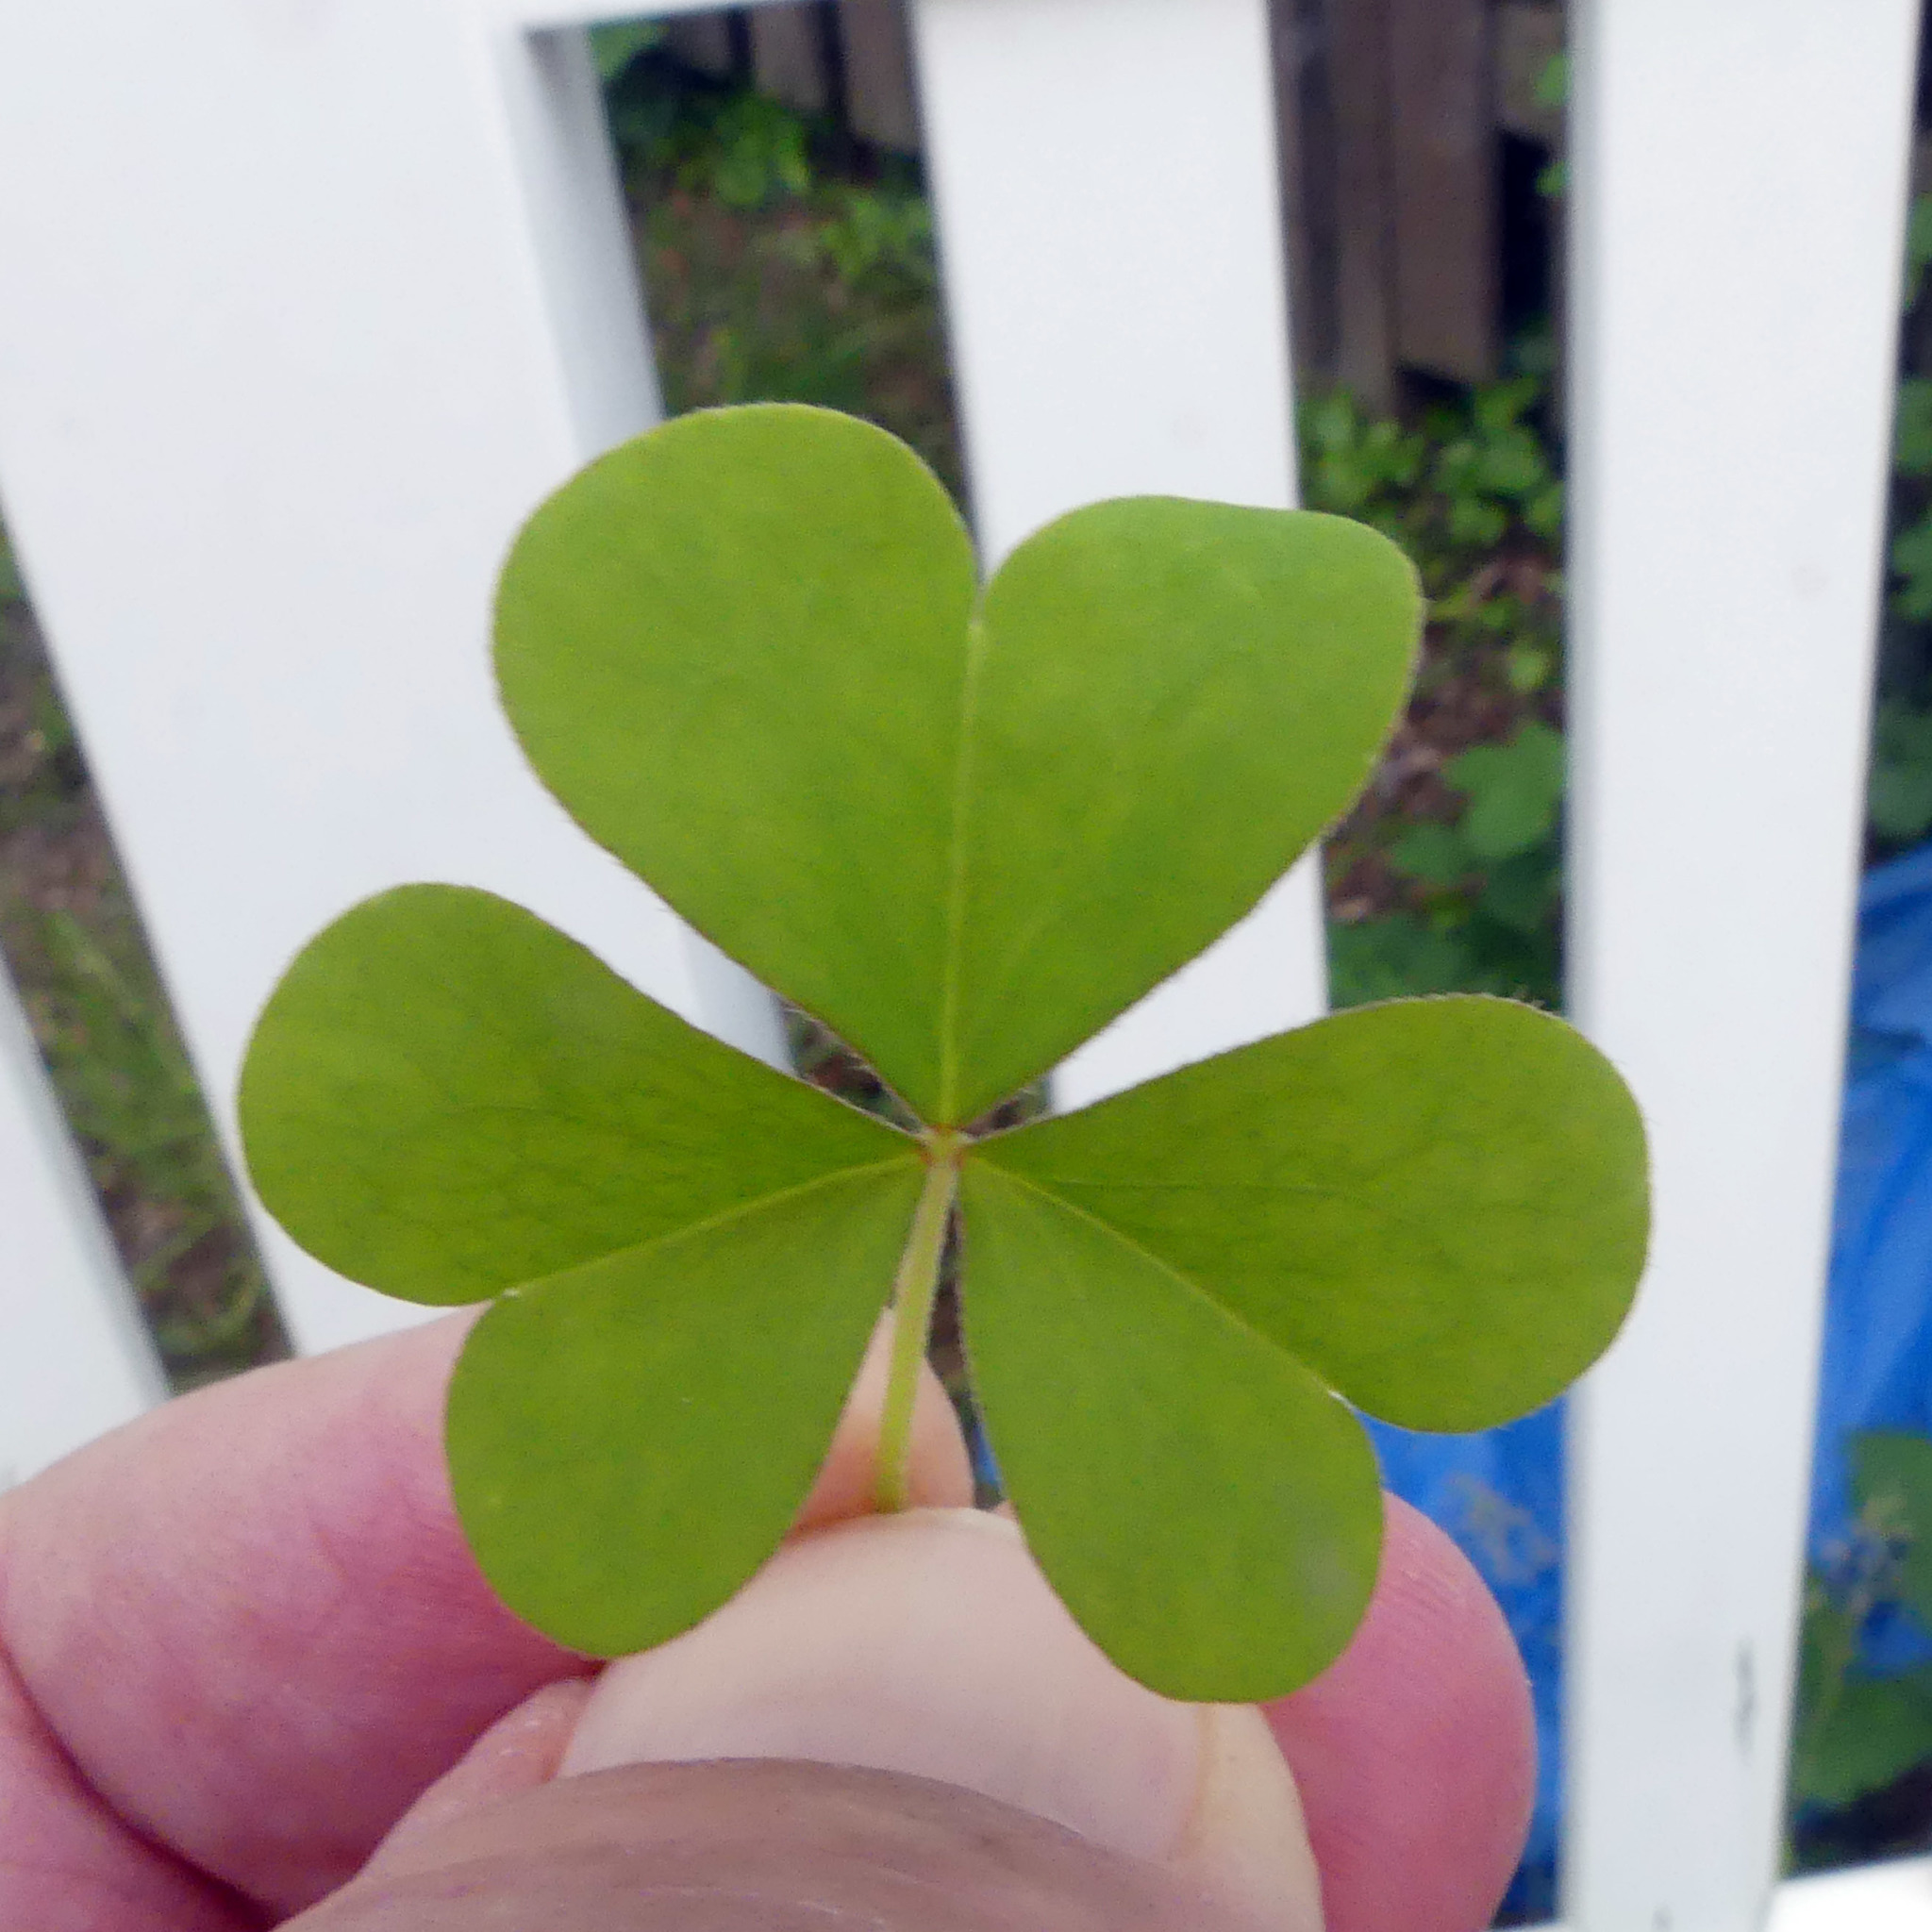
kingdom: Plantae
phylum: Tracheophyta
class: Magnoliopsida
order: Oxalidales
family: Oxalidaceae
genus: Oxalis
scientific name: Oxalis stricta
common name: Upright yellow-sorrel
